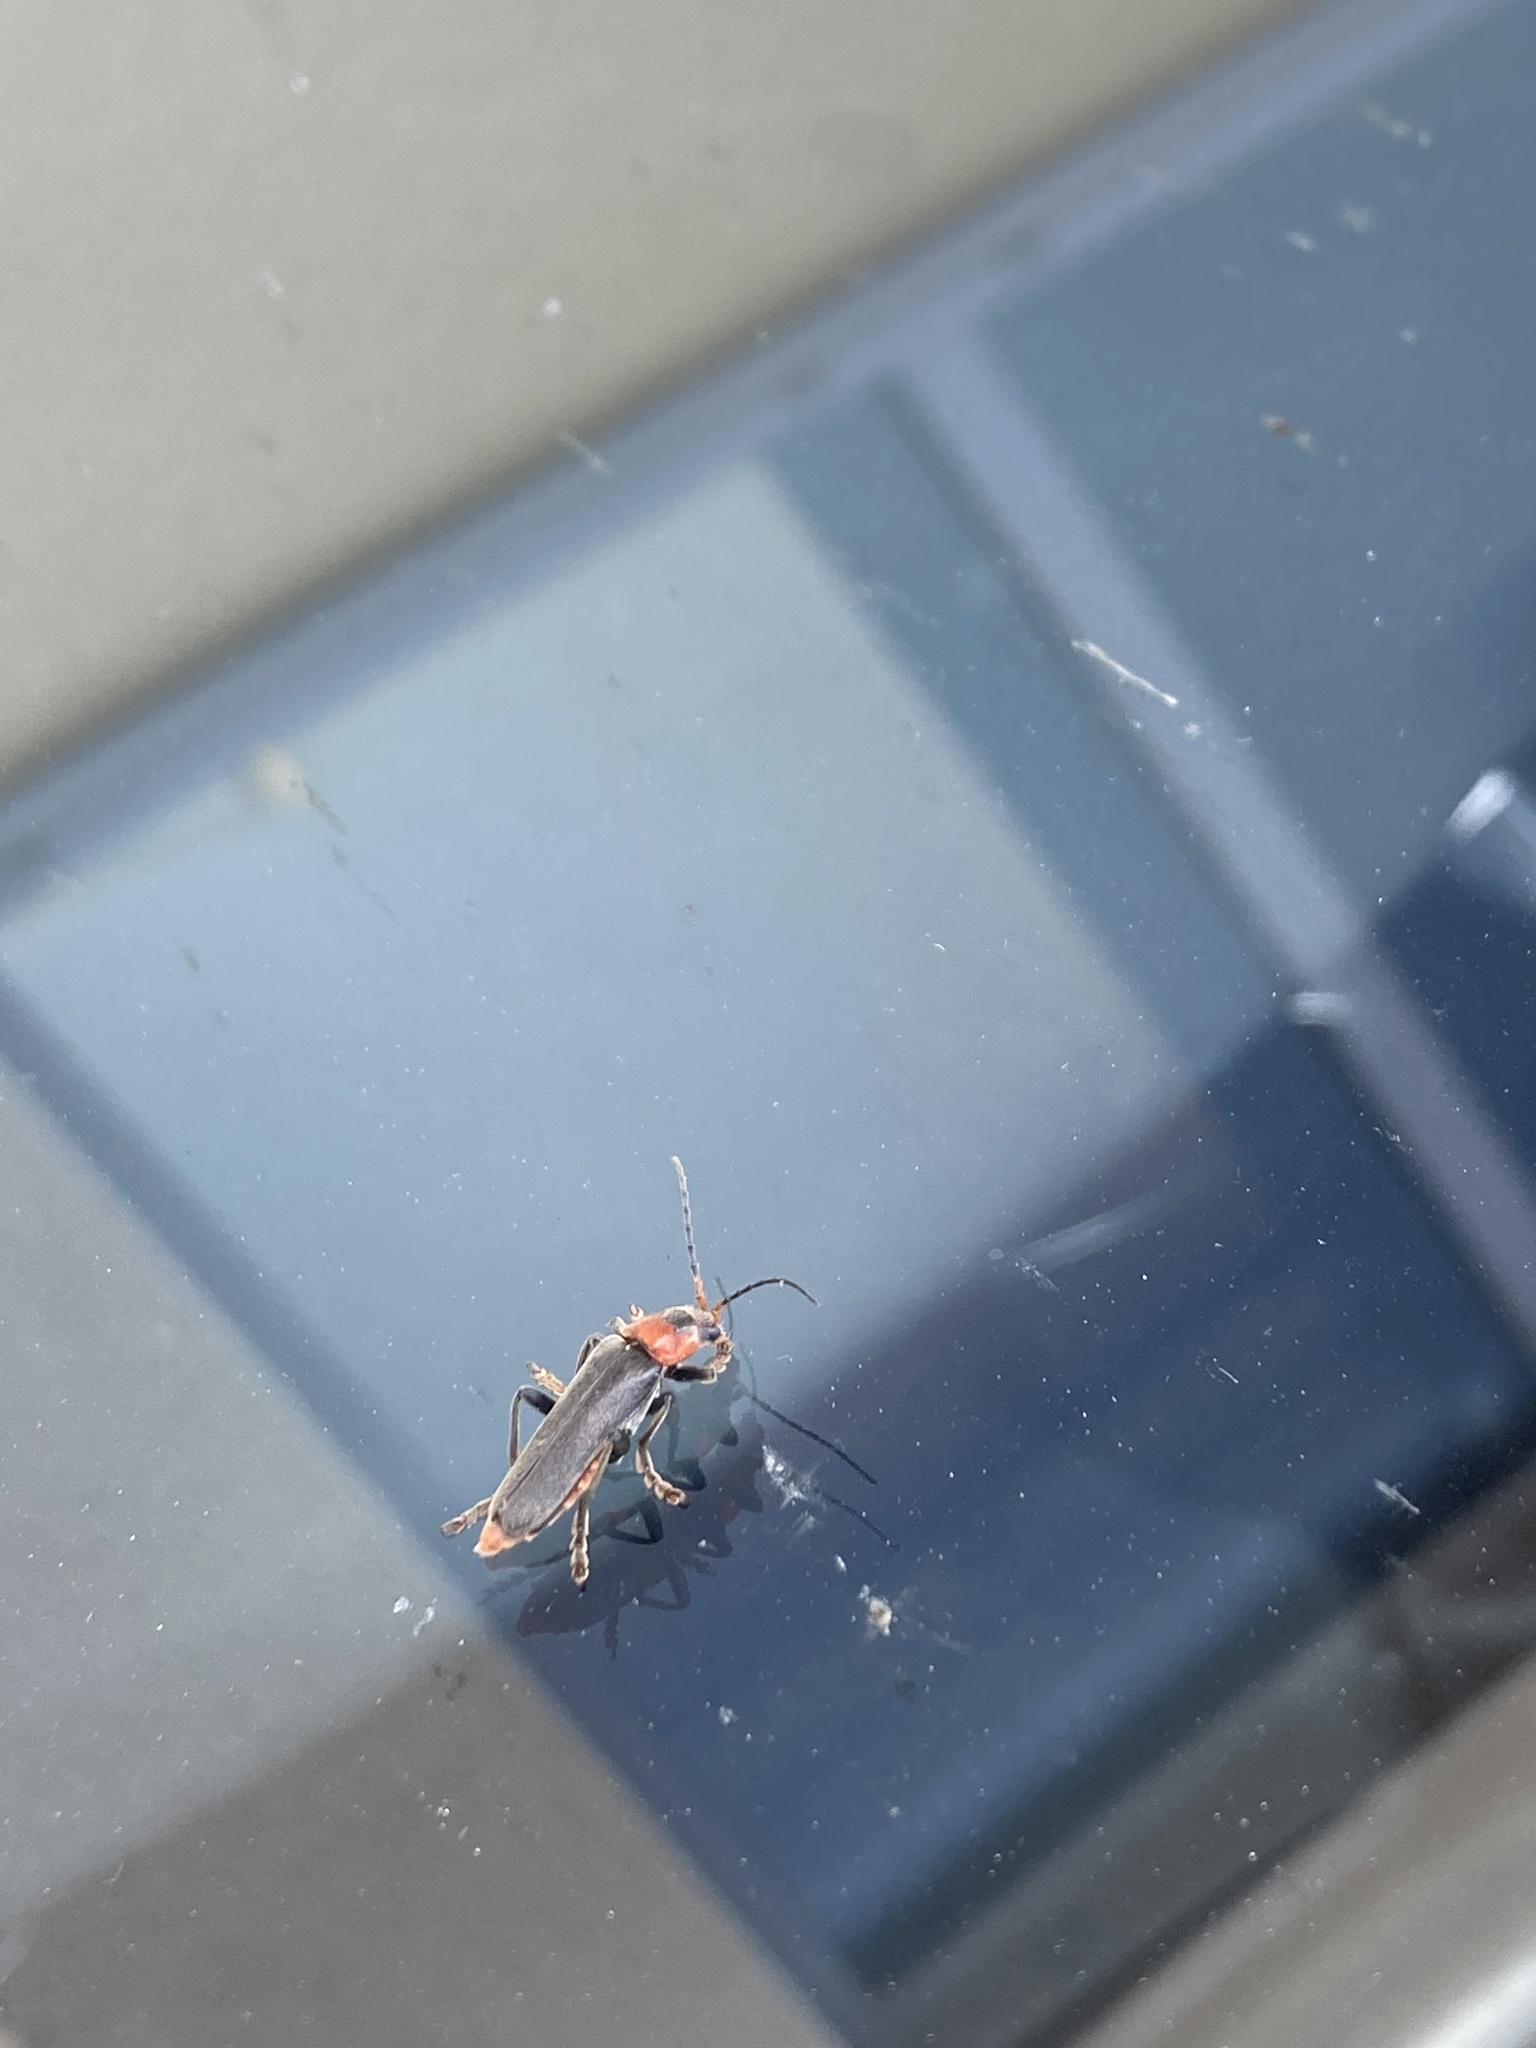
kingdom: Animalia
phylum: Arthropoda
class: Insecta
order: Coleoptera
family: Cantharidae
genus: Cantharis
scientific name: Cantharis fusca
